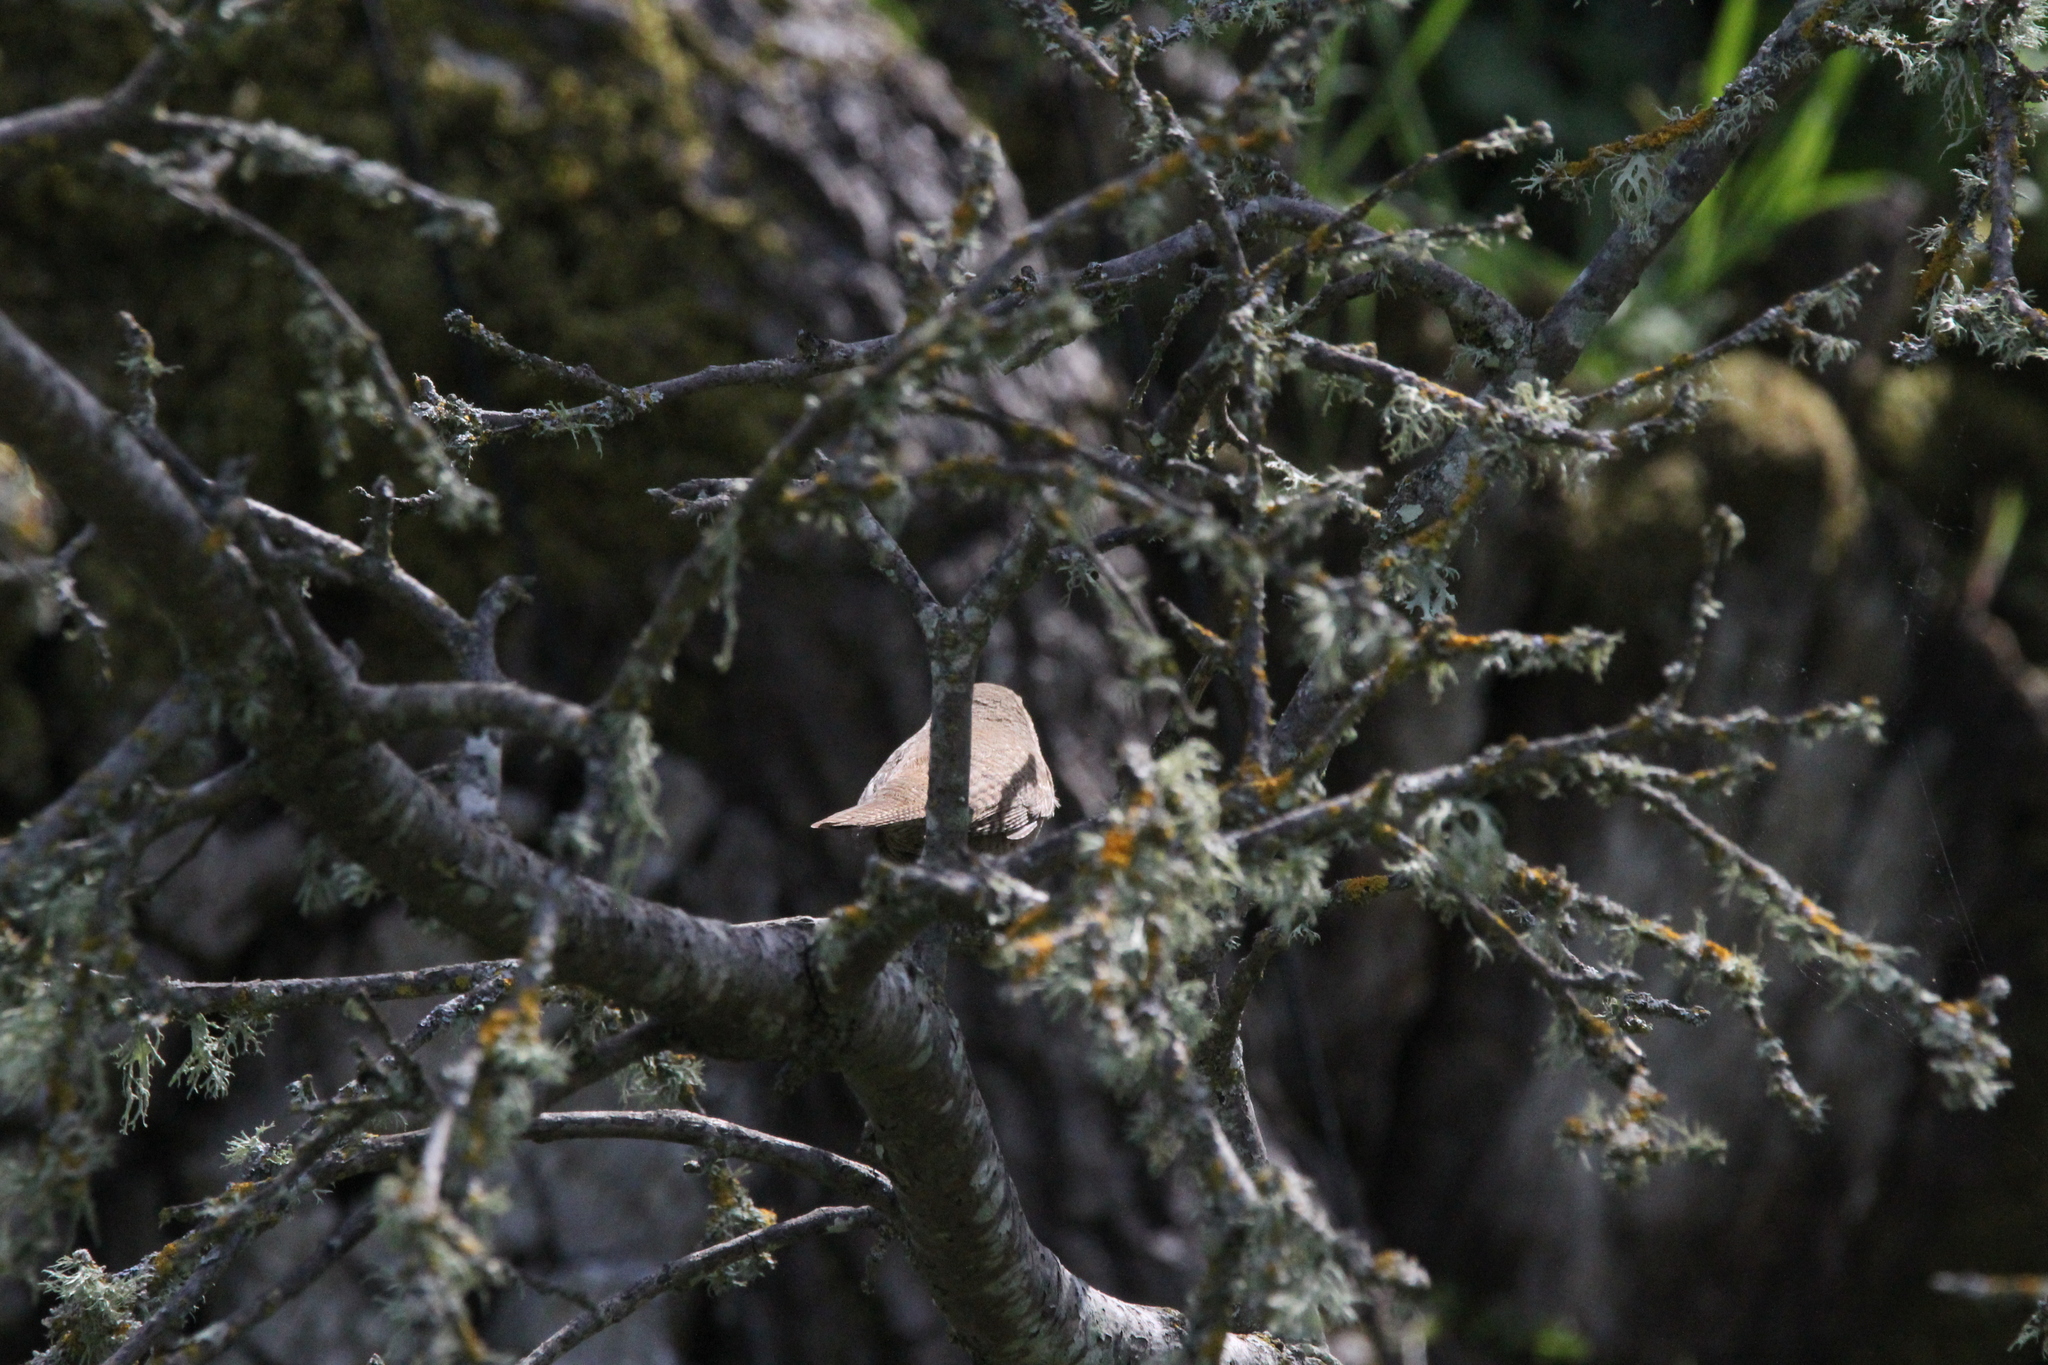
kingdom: Animalia
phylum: Chordata
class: Aves
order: Passeriformes
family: Troglodytidae
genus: Troglodytes
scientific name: Troglodytes aedon
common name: House wren
